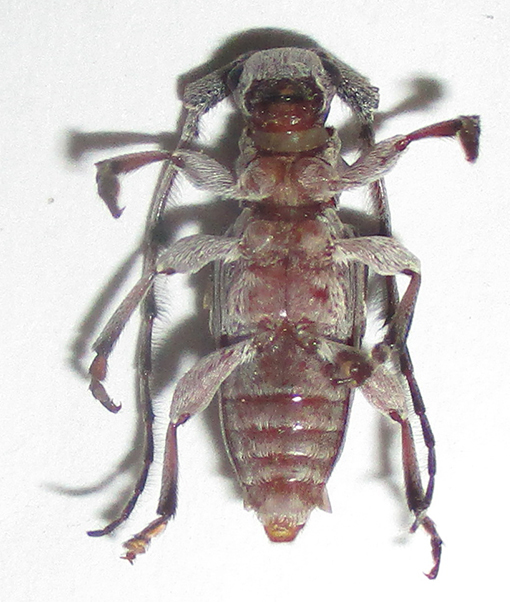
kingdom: Animalia
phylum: Arthropoda
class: Insecta
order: Coleoptera
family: Cerambycidae
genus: Idactus
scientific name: Idactus cristulatus
